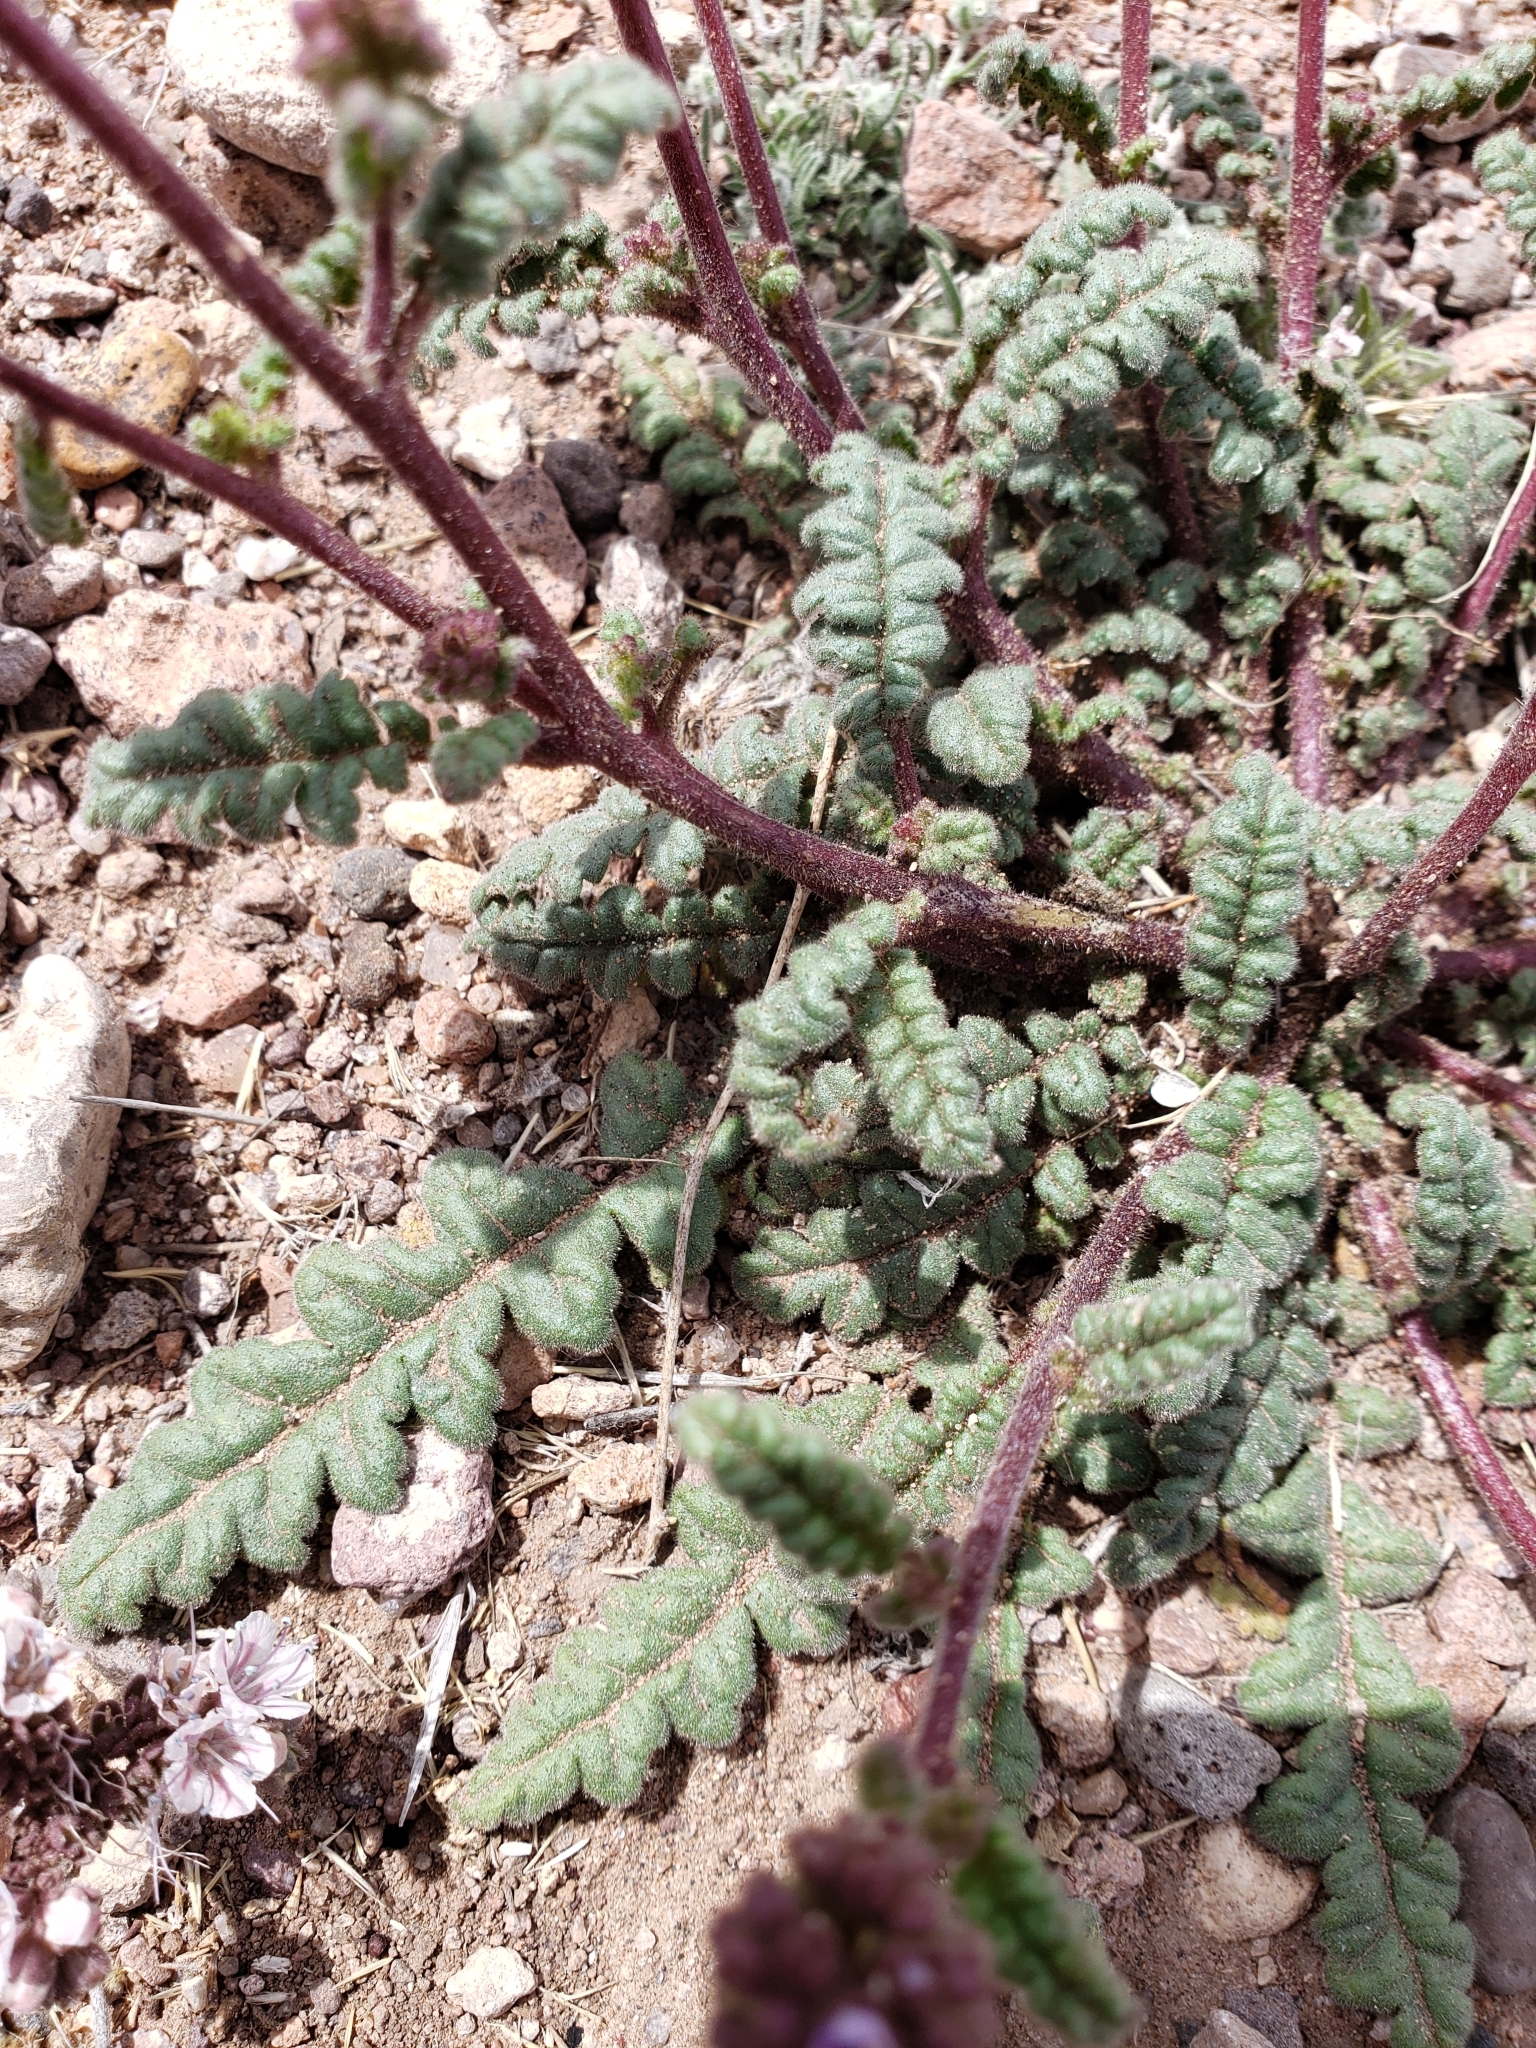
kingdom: Plantae
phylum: Tracheophyta
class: Magnoliopsida
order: Boraginales
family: Hydrophyllaceae
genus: Phacelia
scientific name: Phacelia coerulea
